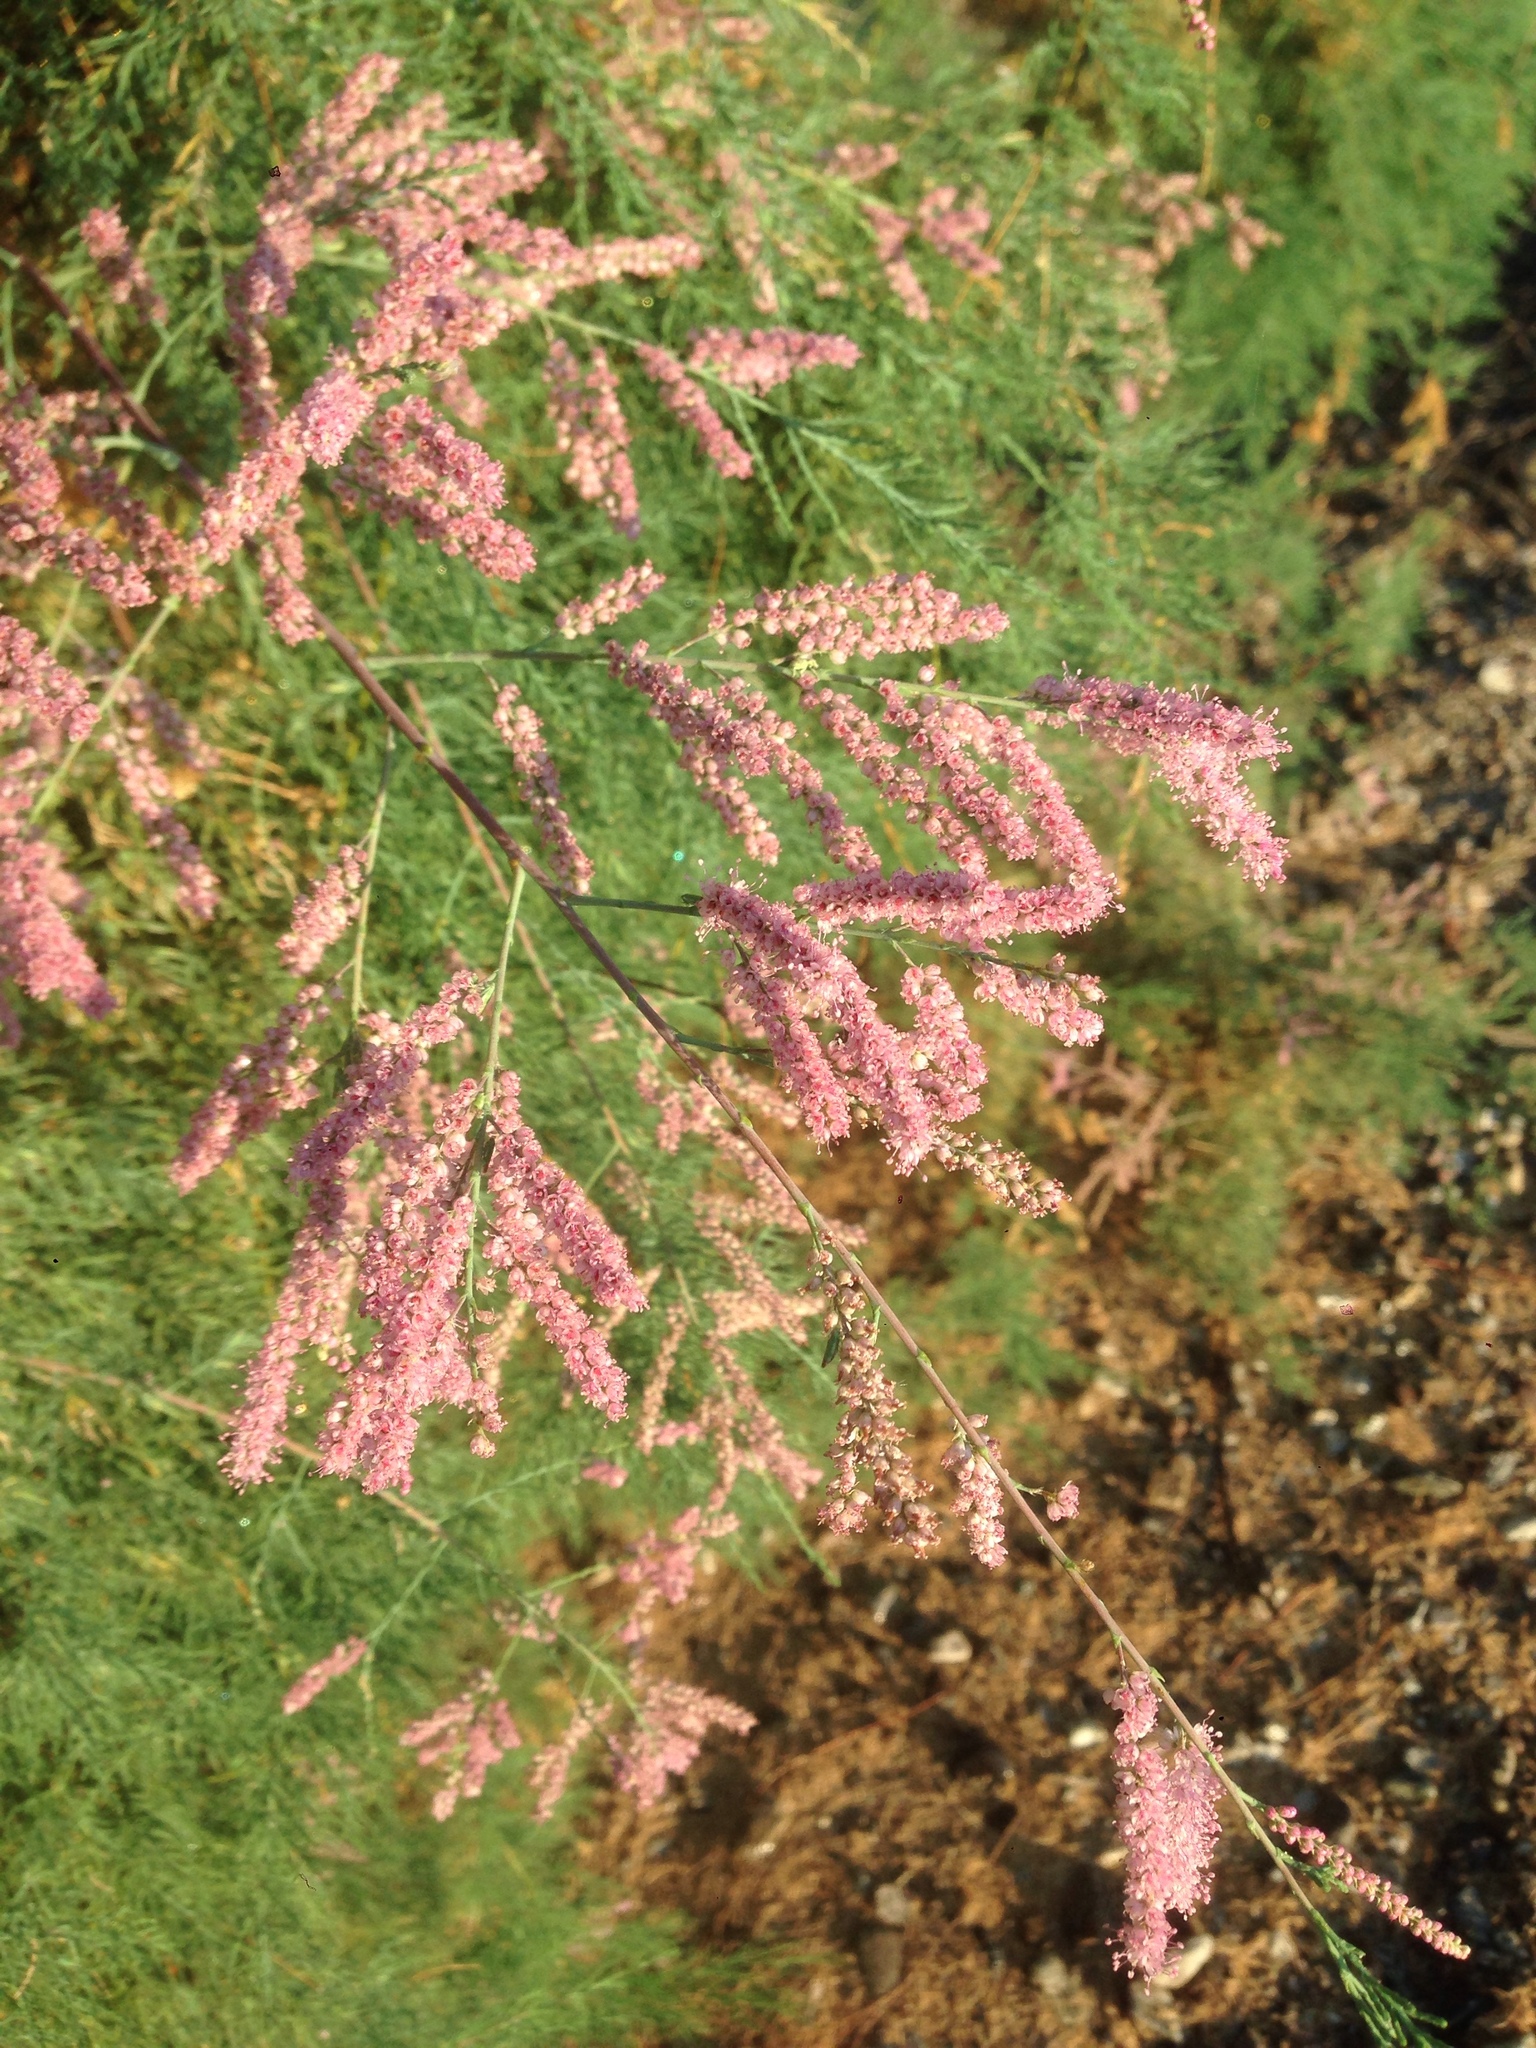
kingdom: Plantae
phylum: Tracheophyta
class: Magnoliopsida
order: Caryophyllales
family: Tamaricaceae
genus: Tamarix
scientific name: Tamarix
